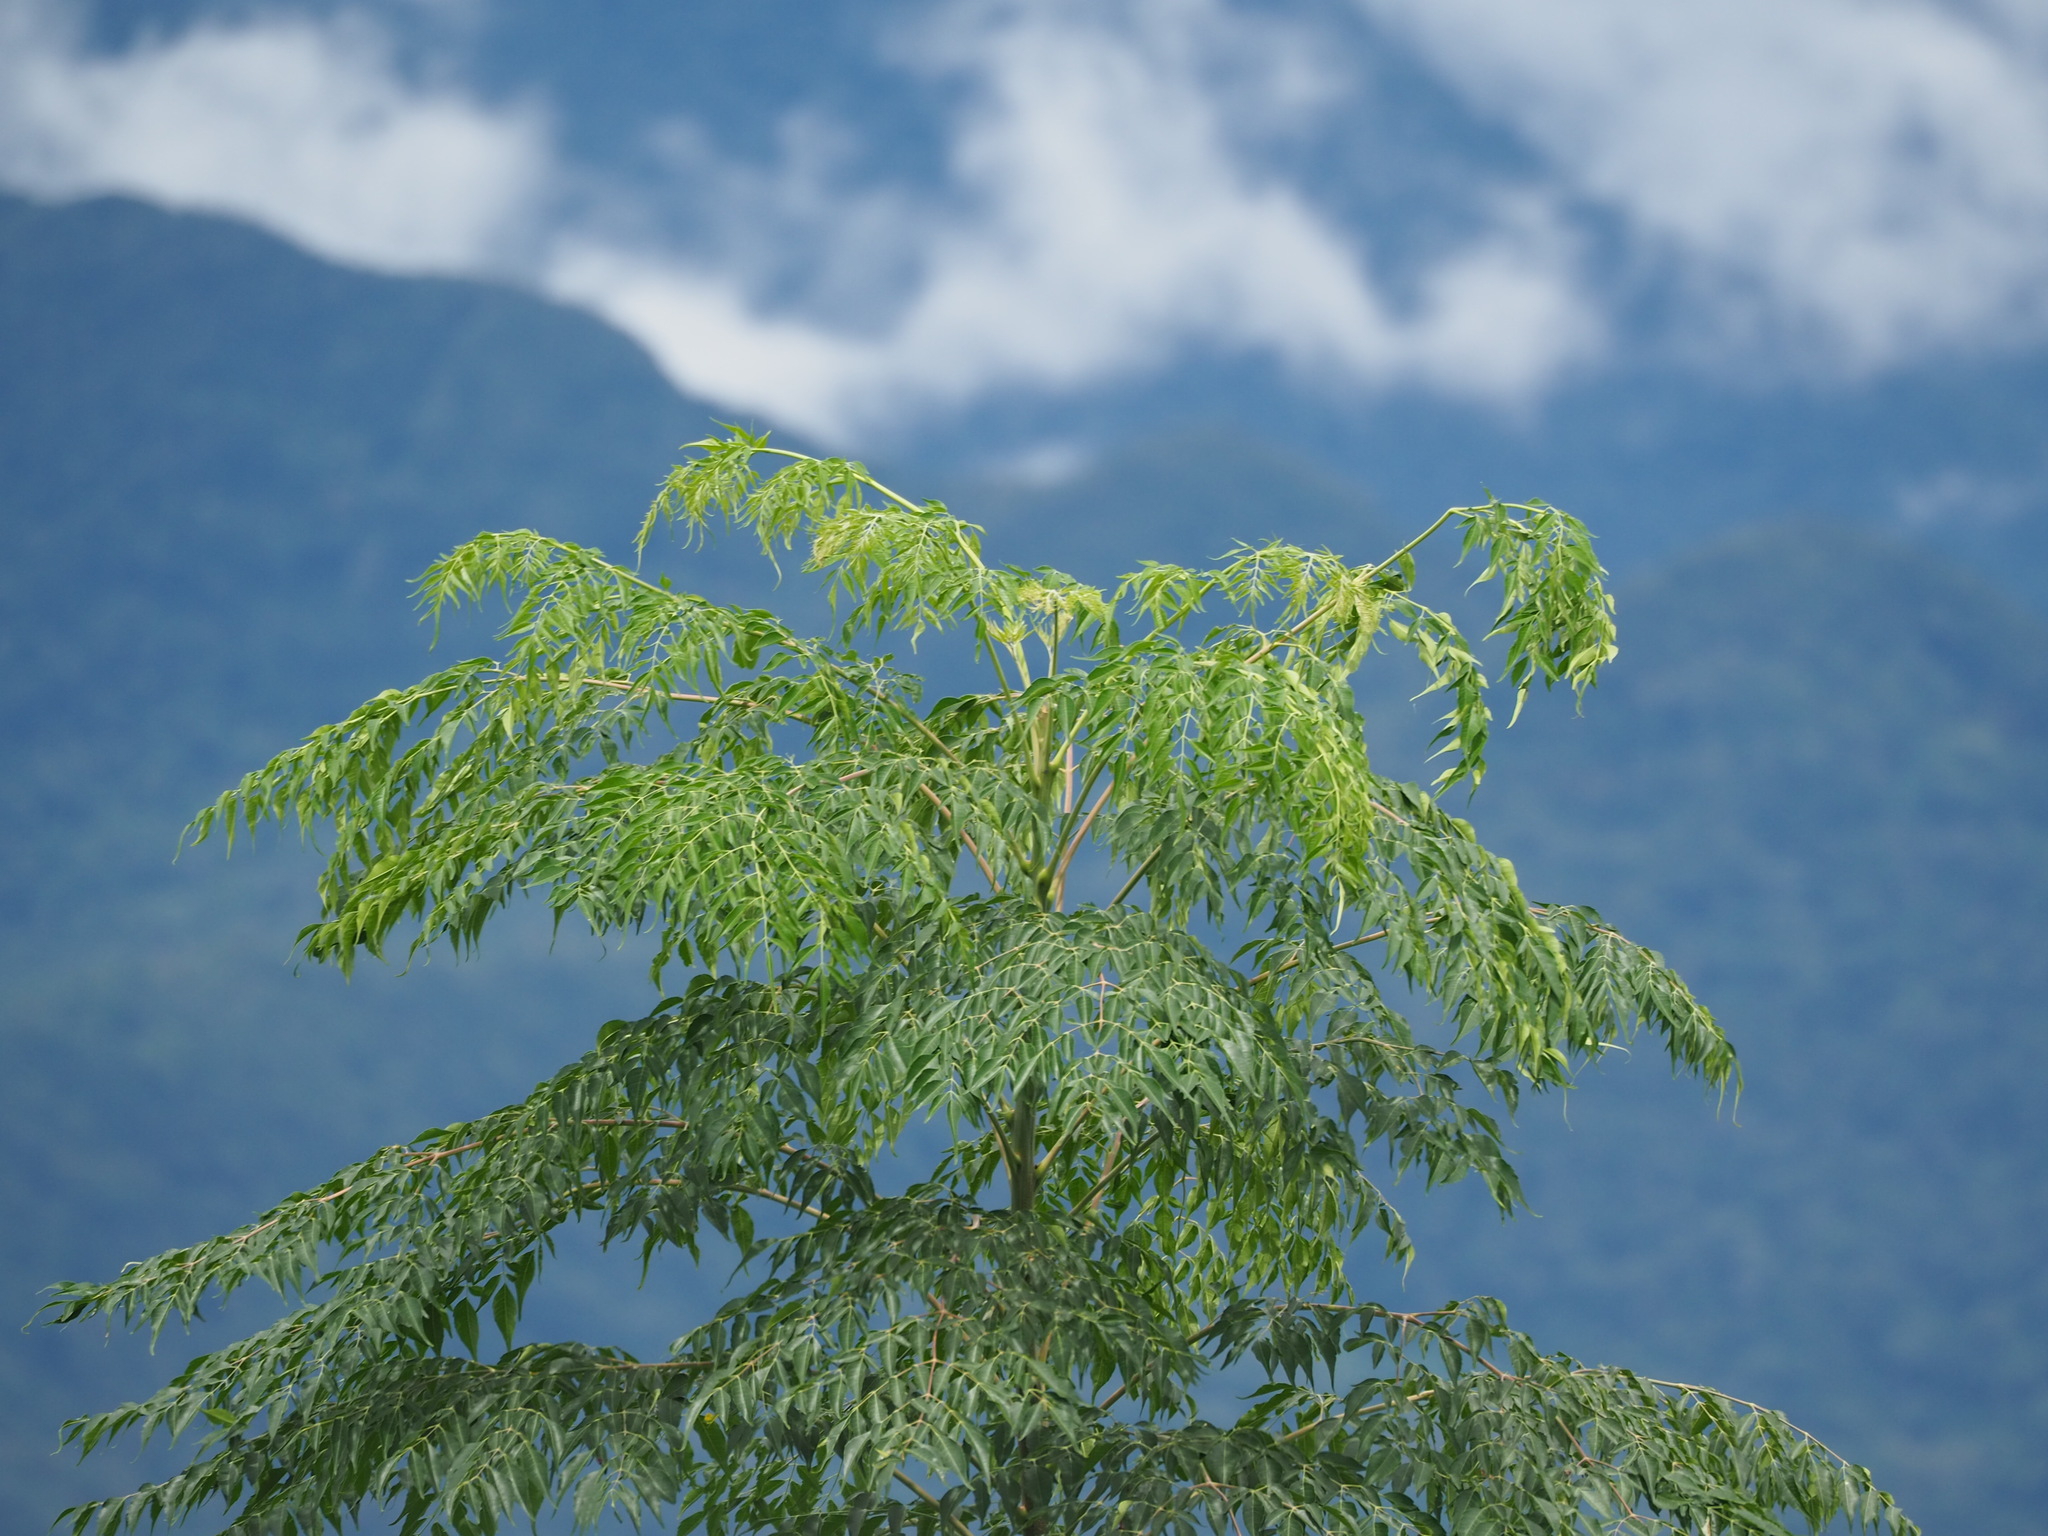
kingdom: Plantae
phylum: Tracheophyta
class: Magnoliopsida
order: Sapindales
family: Meliaceae
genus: Melia
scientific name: Melia azedarach
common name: Chinaberrytree
